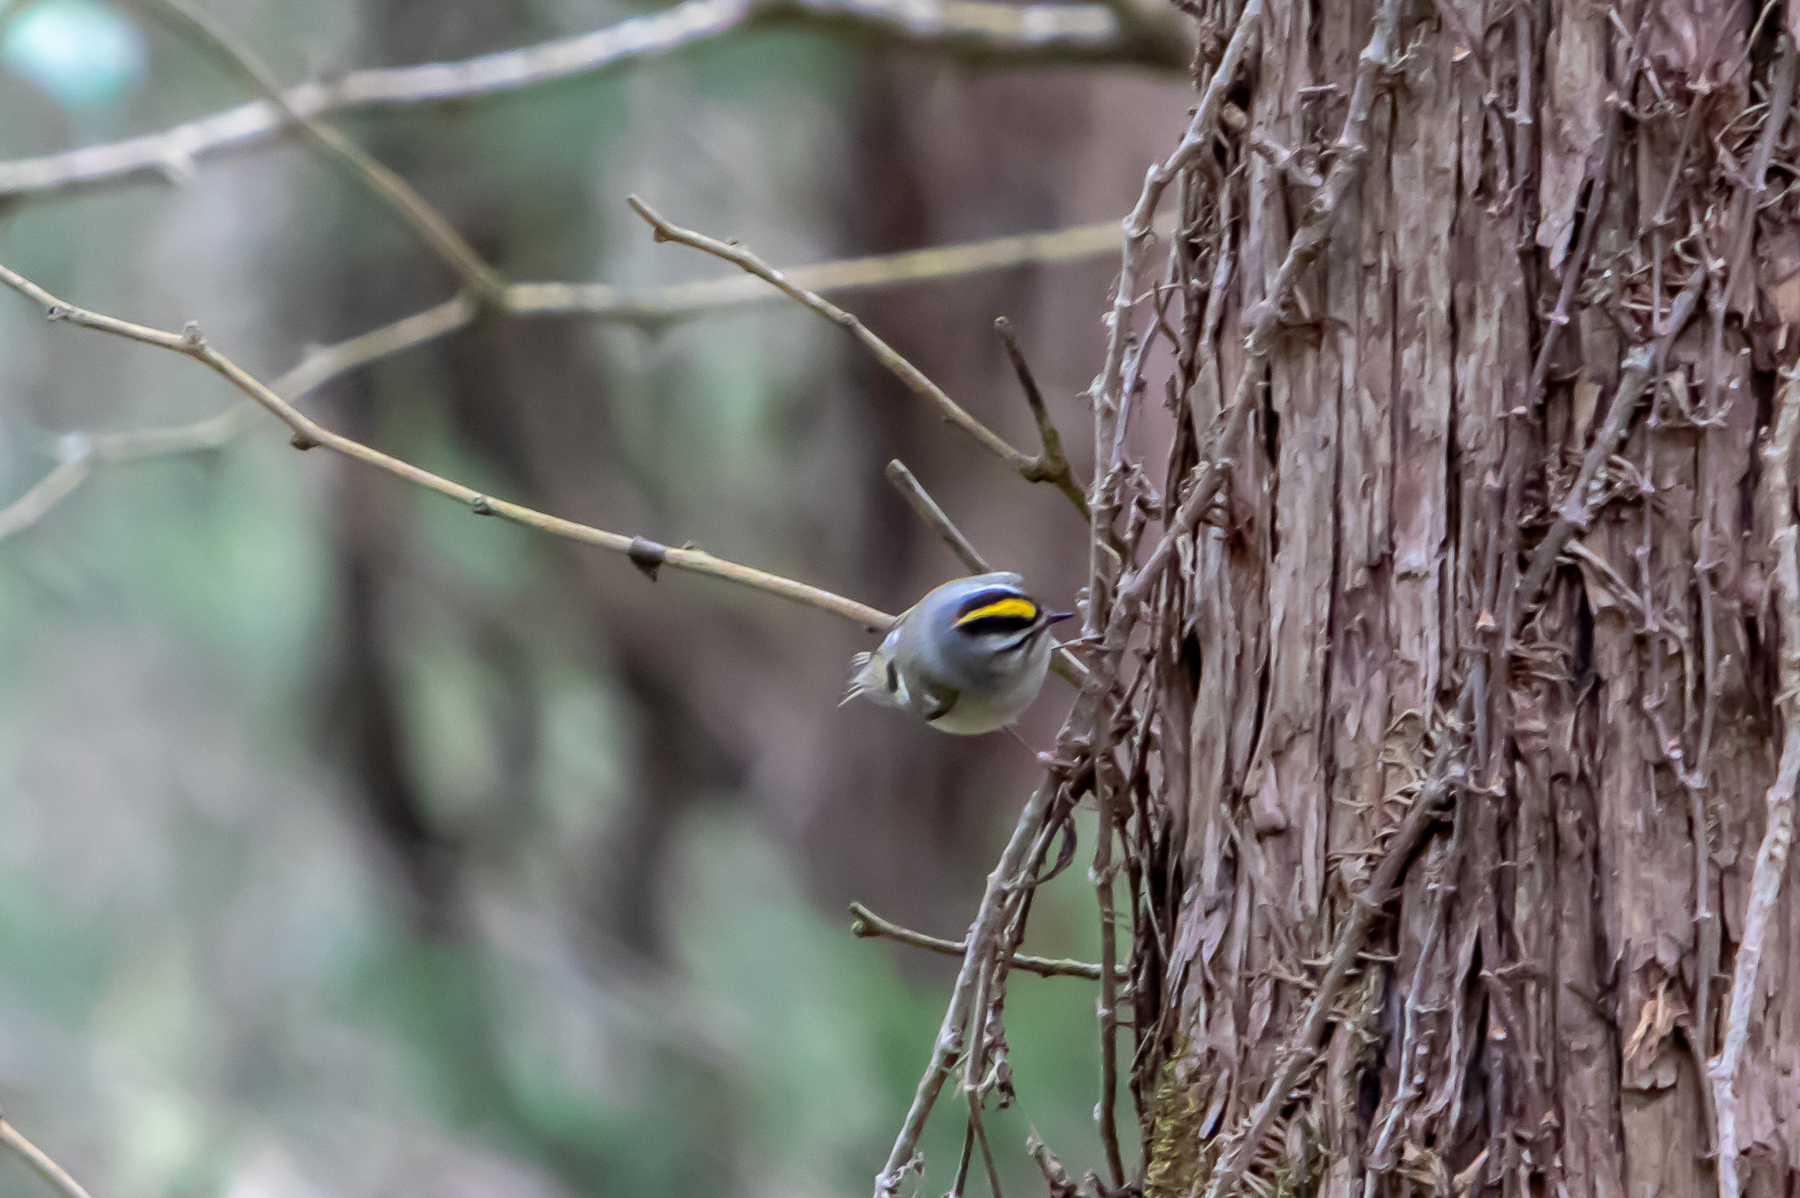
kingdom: Animalia
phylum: Chordata
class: Aves
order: Passeriformes
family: Regulidae
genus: Regulus
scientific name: Regulus satrapa
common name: Golden-crowned kinglet
